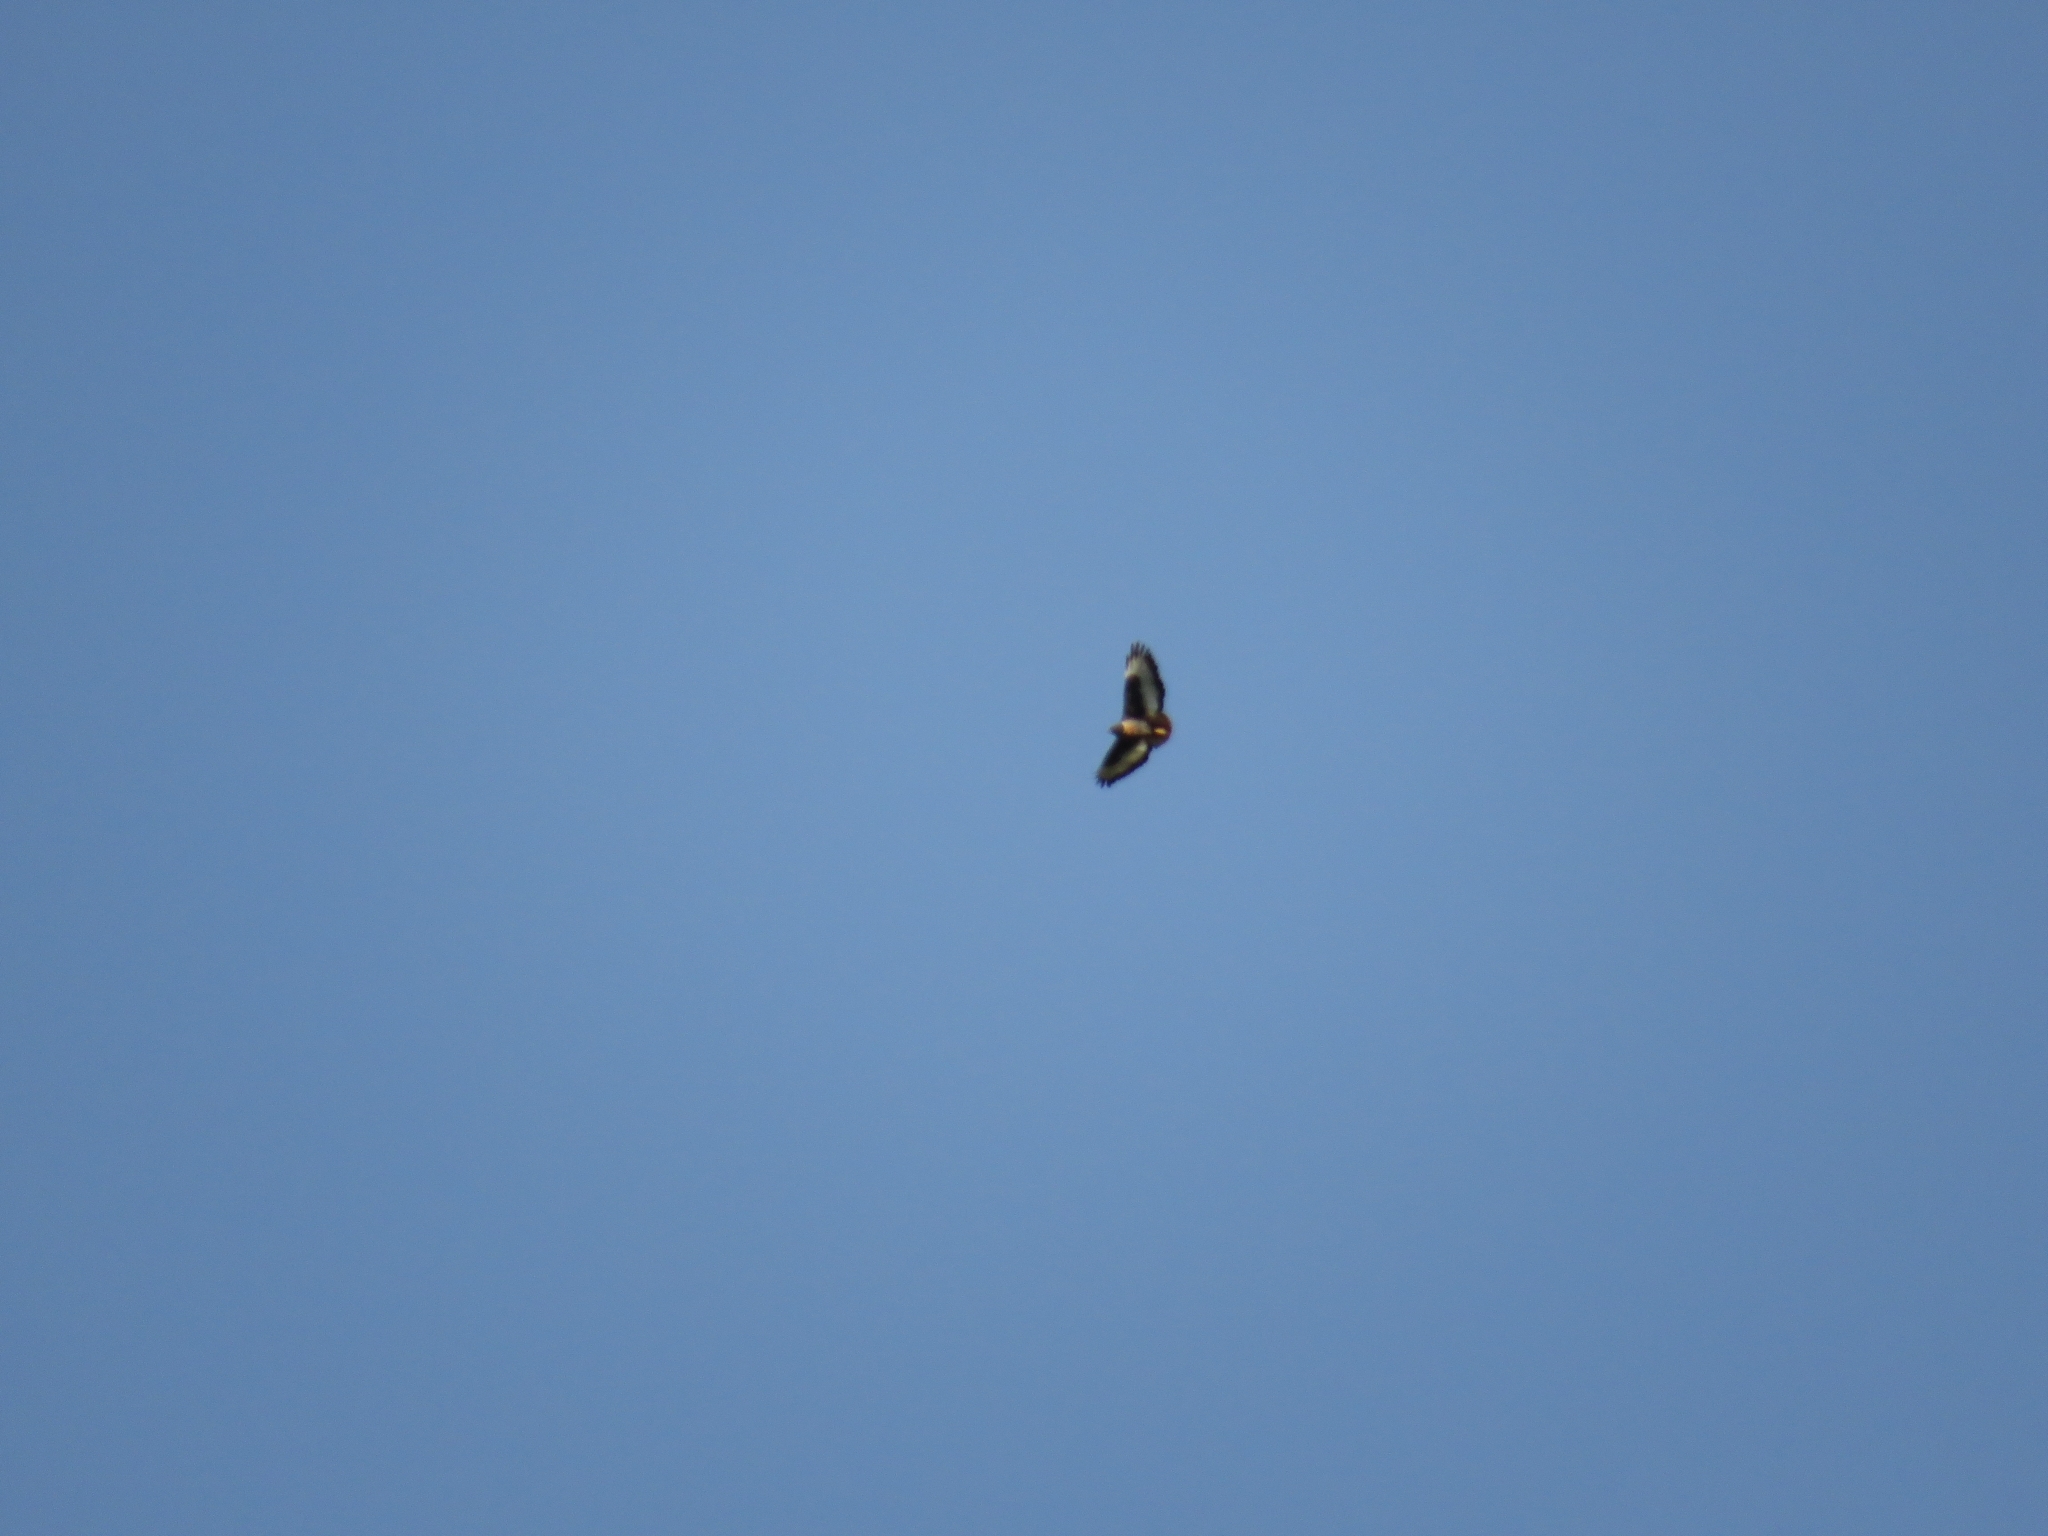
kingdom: Animalia
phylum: Chordata
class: Aves
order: Accipitriformes
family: Accipitridae
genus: Buteo
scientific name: Buteo rufofuscus
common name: Jackal buzzard
